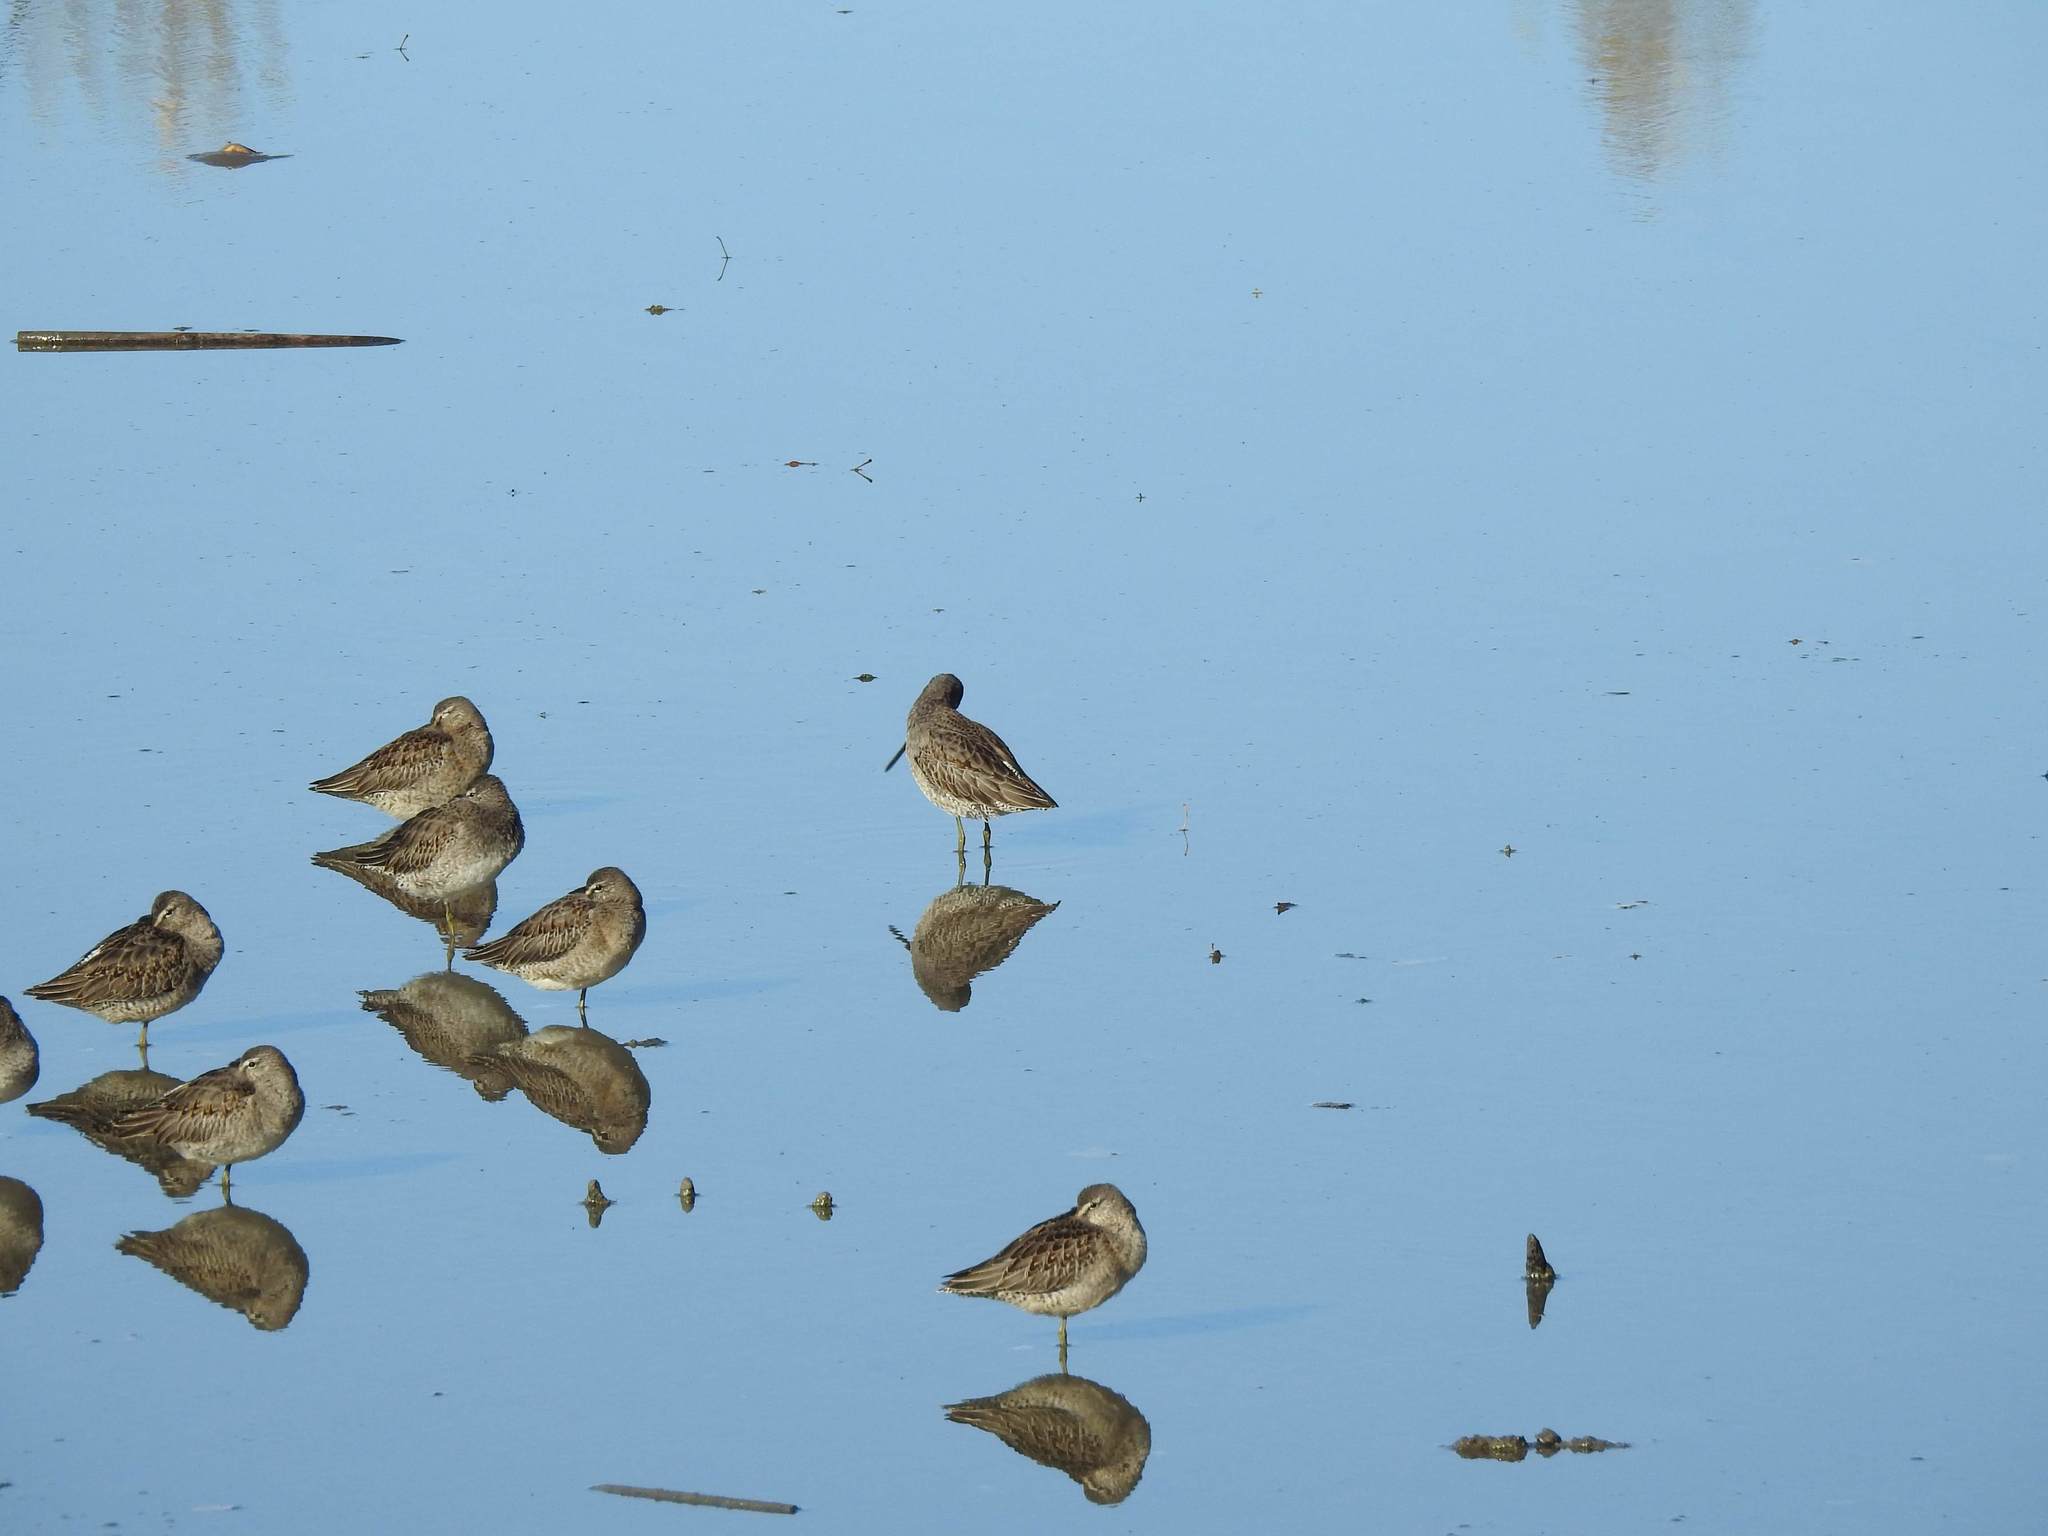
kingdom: Animalia
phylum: Chordata
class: Aves
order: Charadriiformes
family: Scolopacidae
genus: Limnodromus
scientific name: Limnodromus scolopaceus
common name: Long-billed dowitcher
